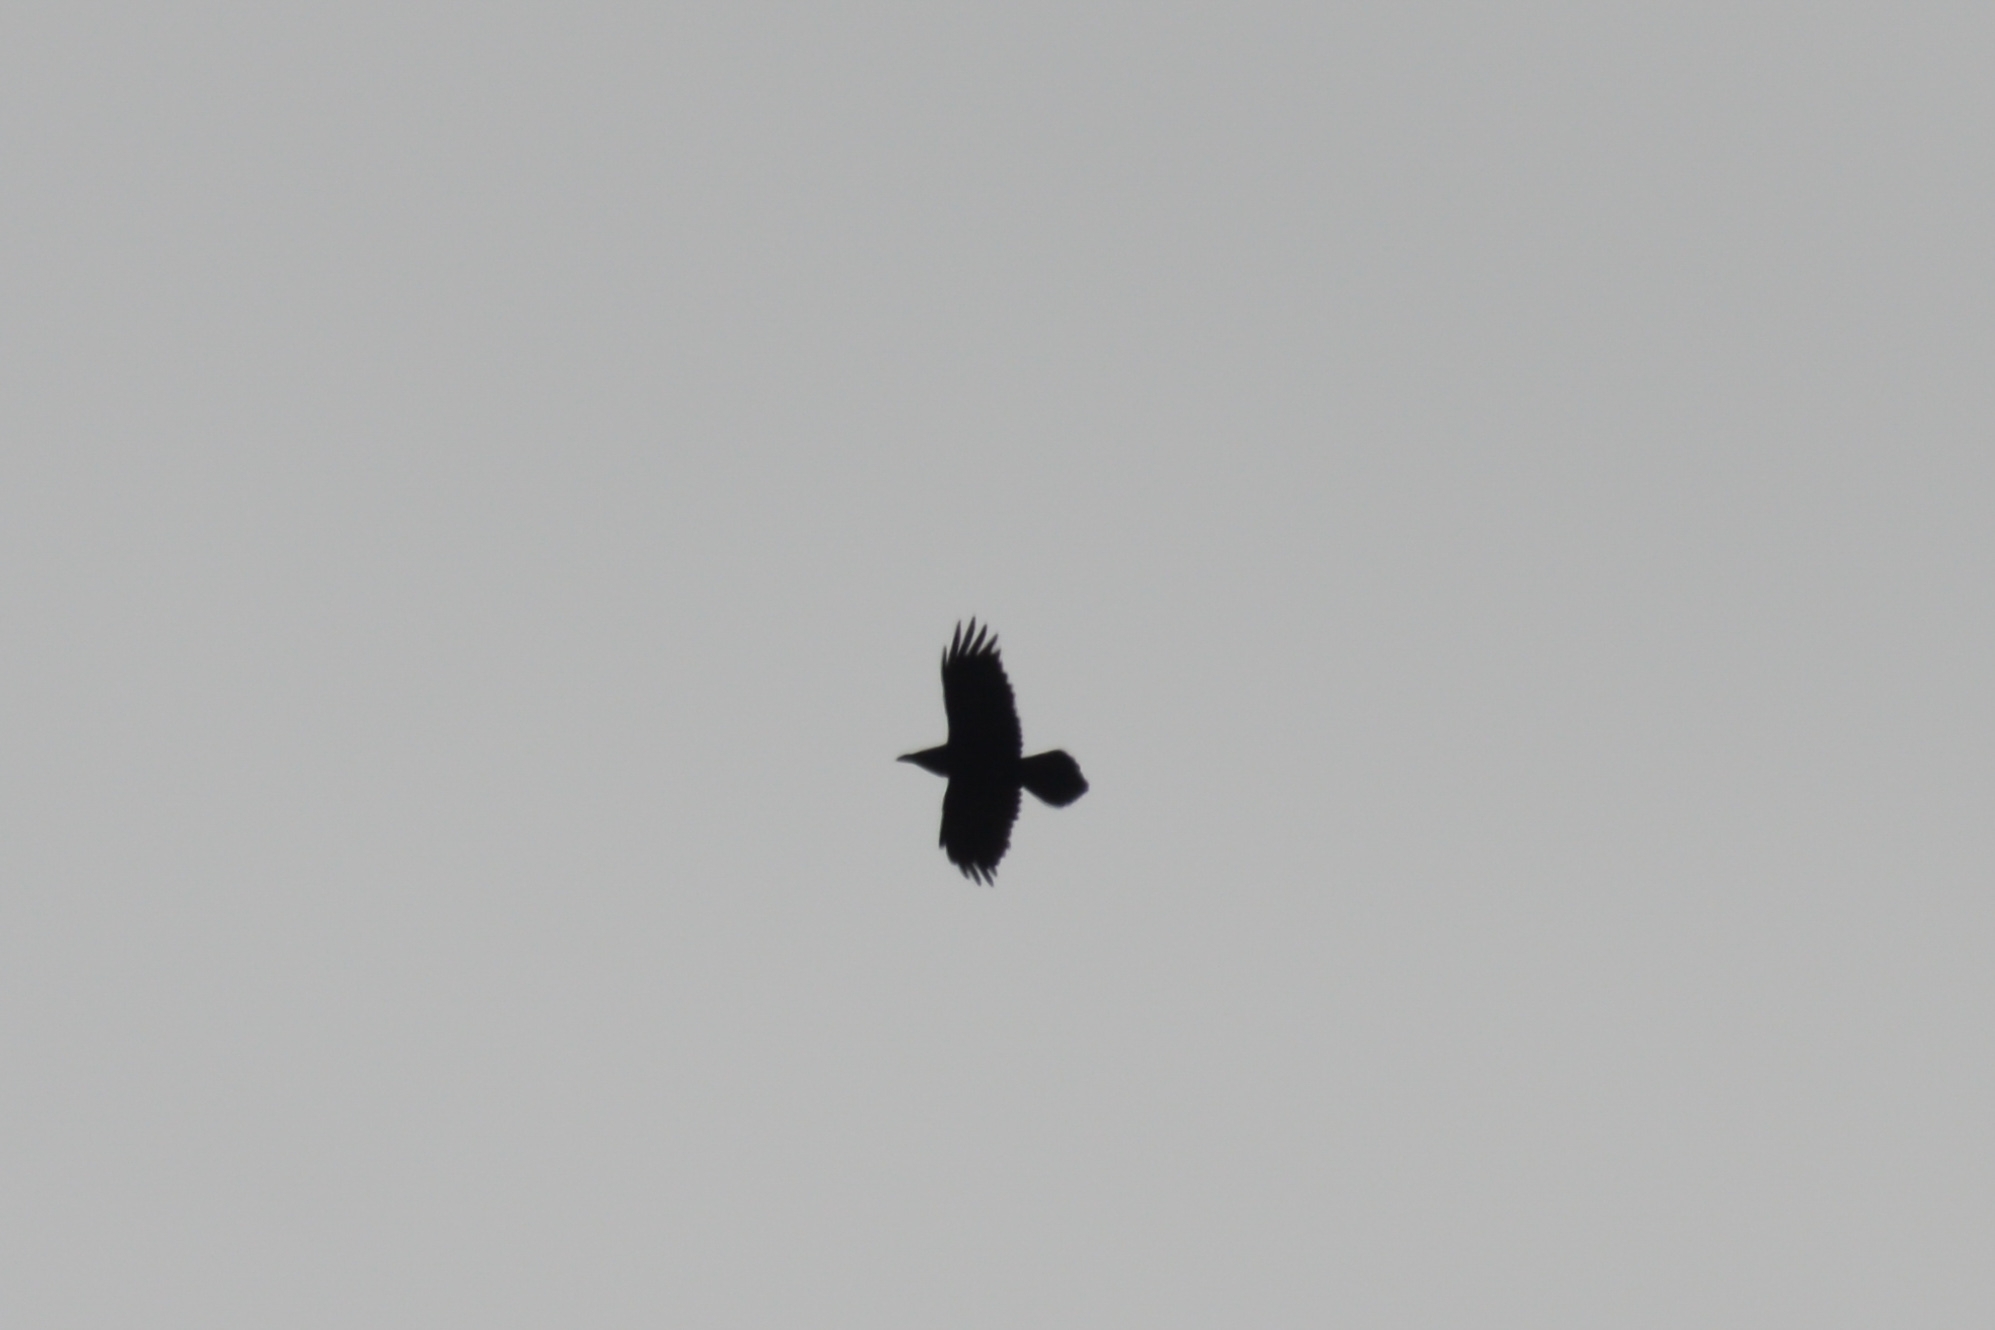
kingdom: Animalia
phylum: Chordata
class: Aves
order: Passeriformes
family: Corvidae
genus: Corvus
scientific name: Corvus corax
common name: Common raven
